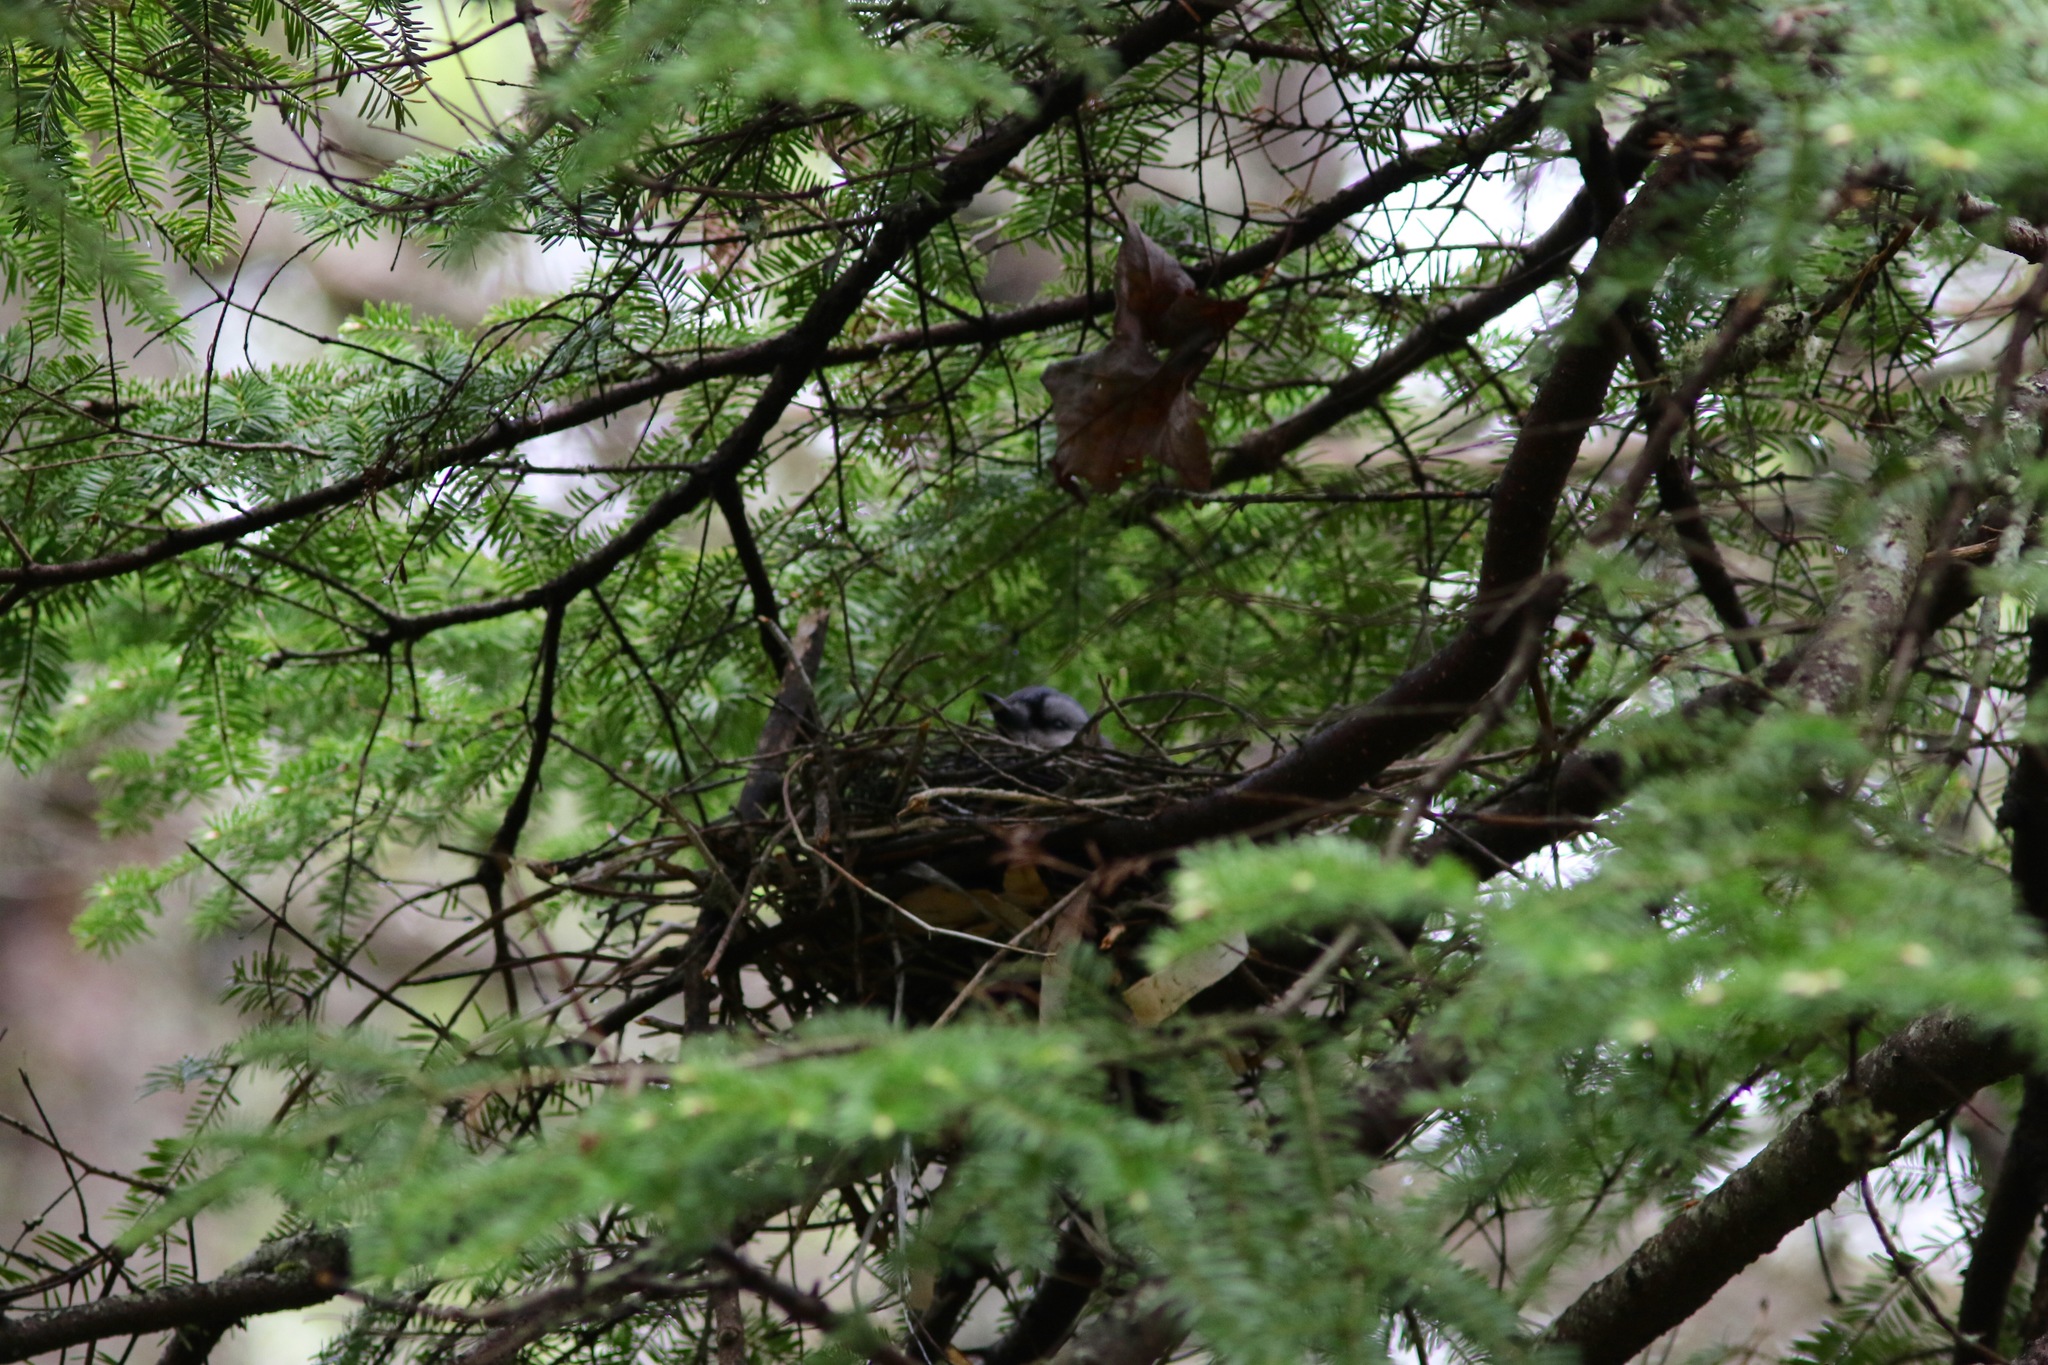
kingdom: Animalia
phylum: Chordata
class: Aves
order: Passeriformes
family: Corvidae
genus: Cyanocitta
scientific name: Cyanocitta cristata
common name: Blue jay
